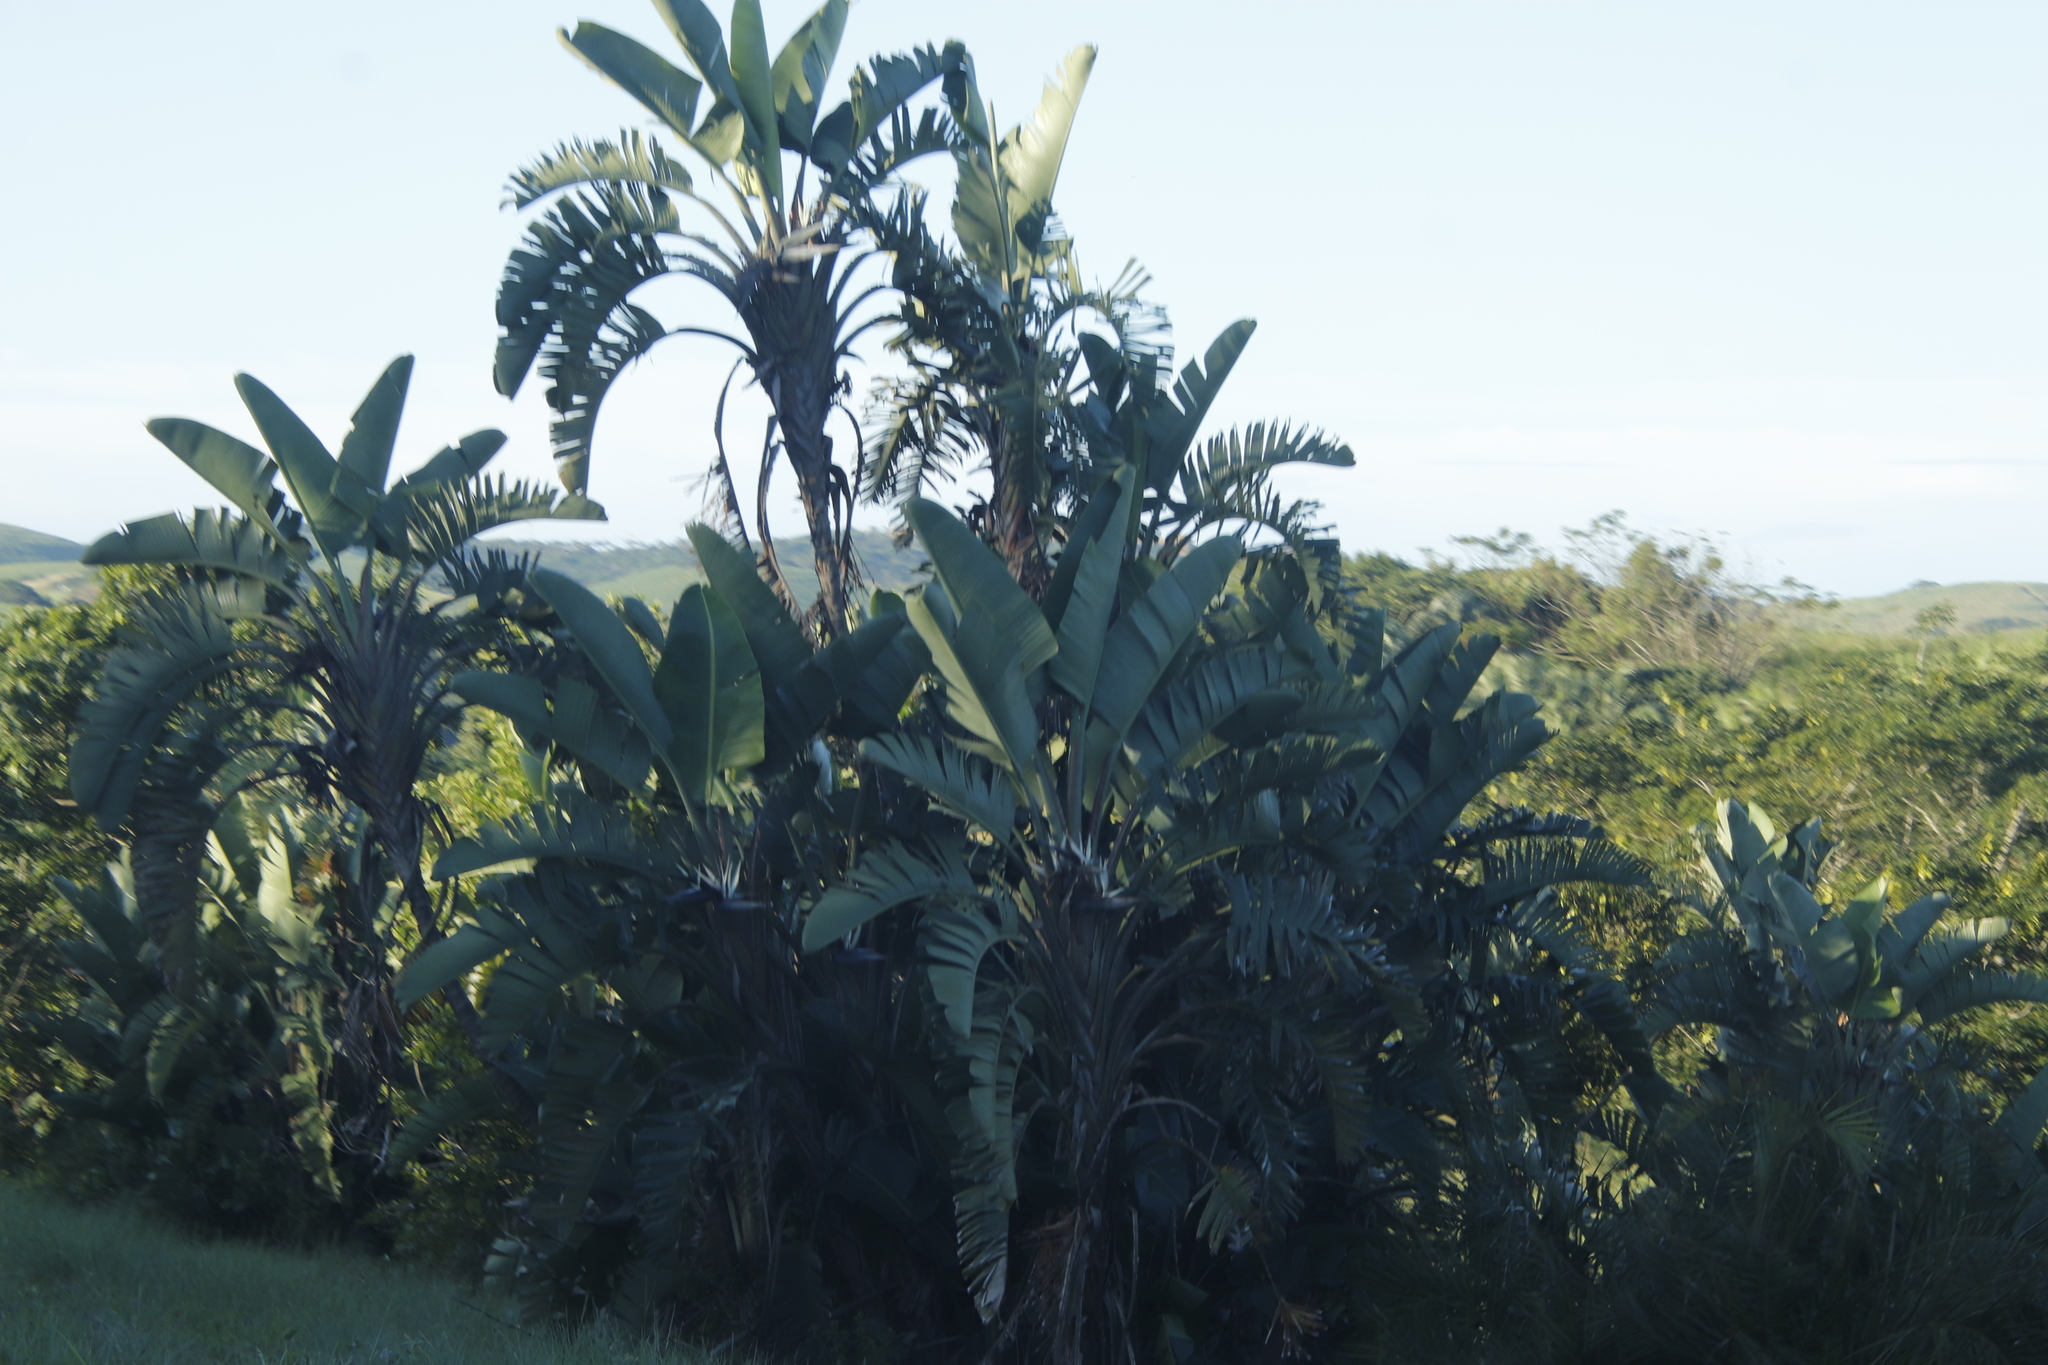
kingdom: Plantae
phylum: Tracheophyta
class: Liliopsida
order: Zingiberales
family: Strelitziaceae
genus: Strelitzia
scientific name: Strelitzia nicolai
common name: Bird-of-paradise tree
